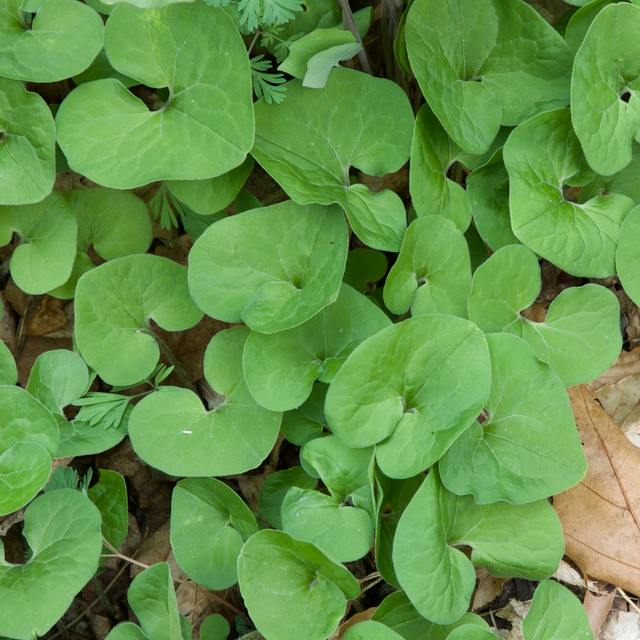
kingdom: Plantae
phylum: Tracheophyta
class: Magnoliopsida
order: Piperales
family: Aristolochiaceae
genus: Asarum
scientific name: Asarum canadense
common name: Wild ginger
